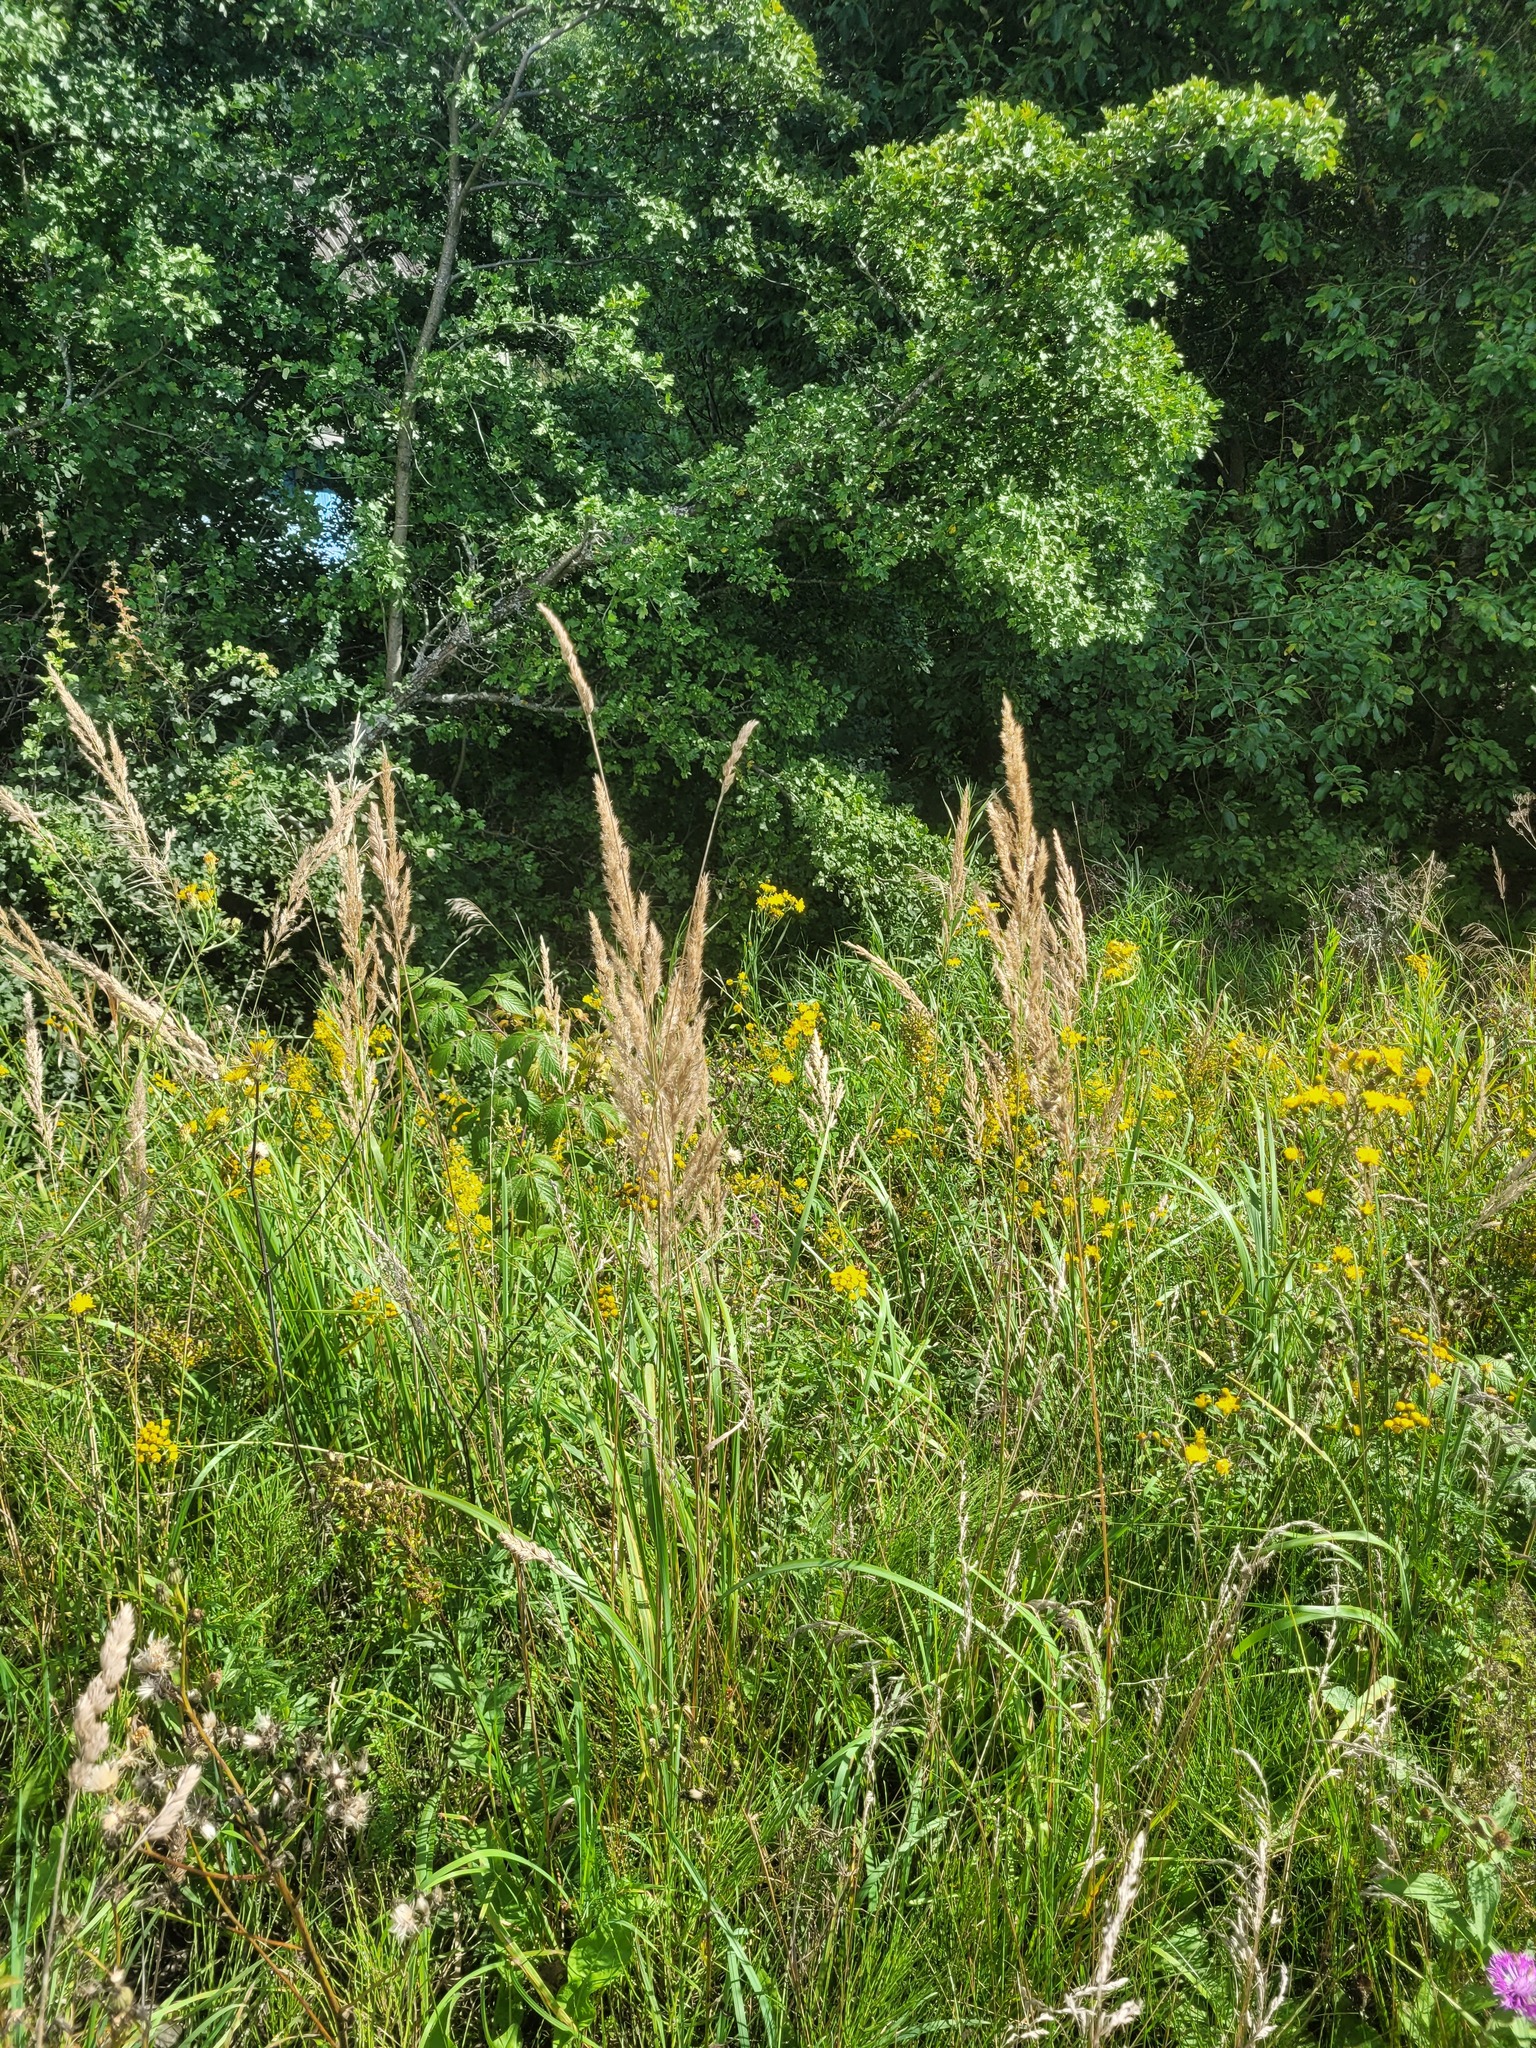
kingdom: Plantae
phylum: Tracheophyta
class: Liliopsida
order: Poales
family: Poaceae
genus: Calamagrostis
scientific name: Calamagrostis epigejos
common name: Wood small-reed
